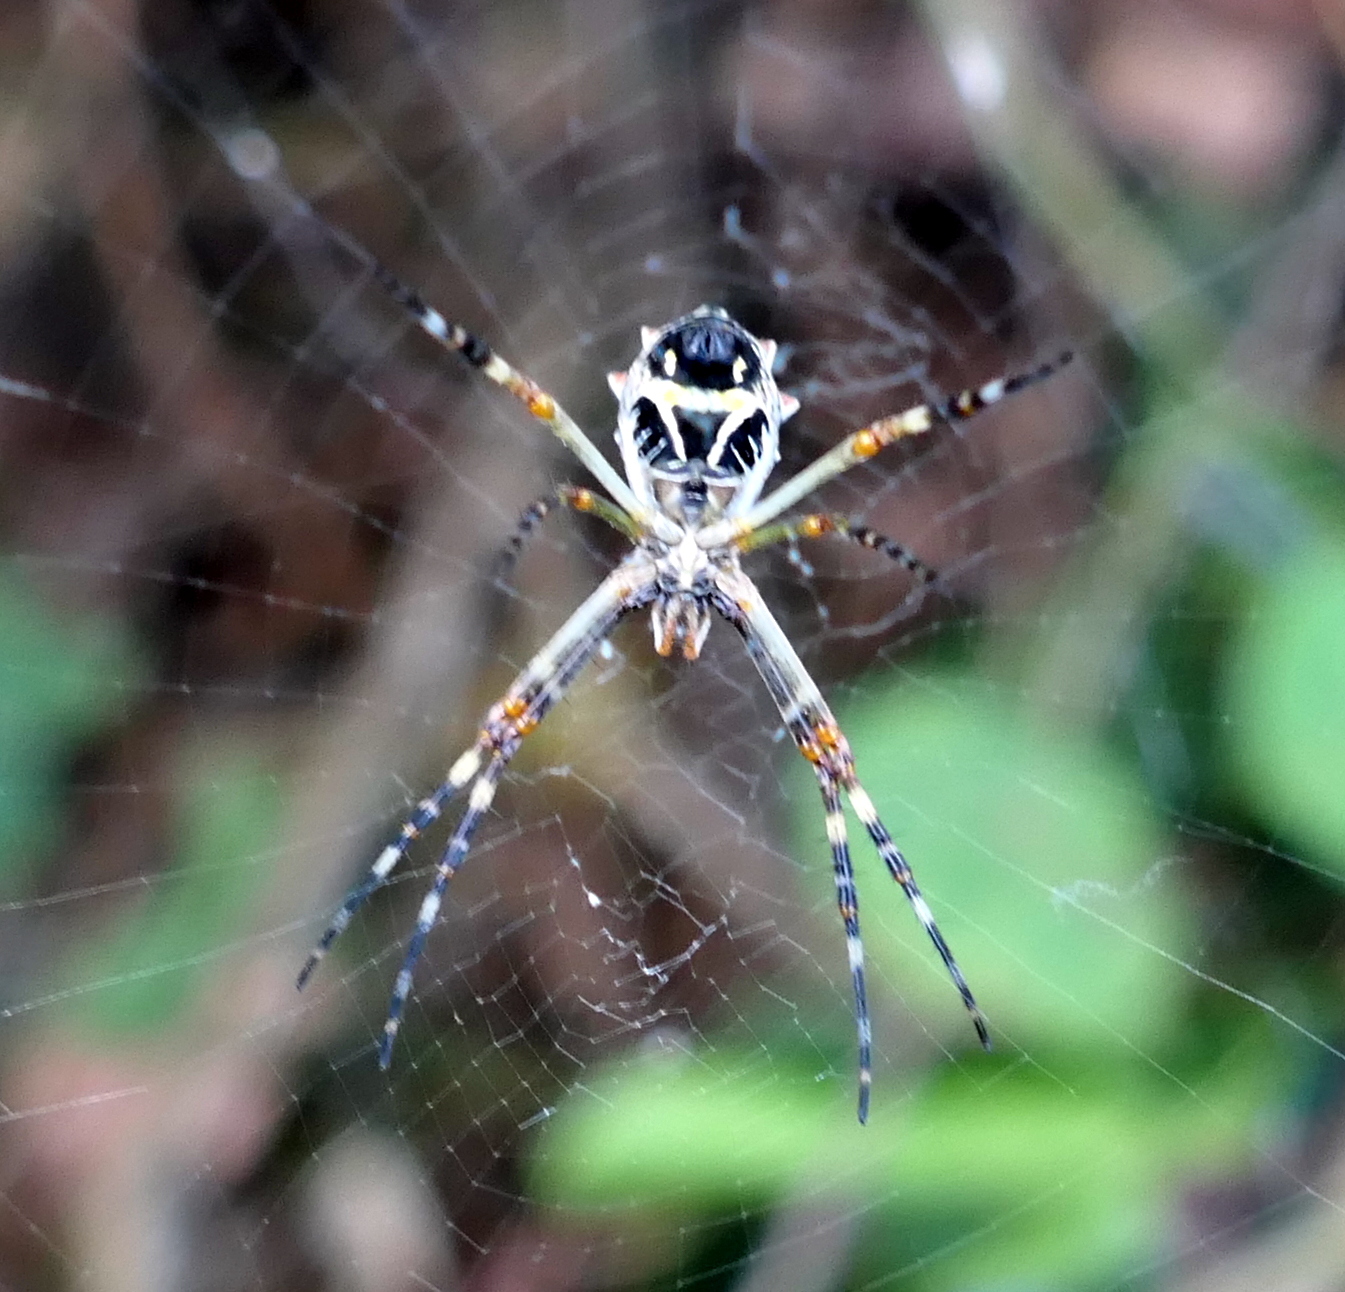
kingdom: Animalia
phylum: Arthropoda
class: Arachnida
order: Araneae
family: Araneidae
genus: Argiope
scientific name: Argiope argentata
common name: Orb weavers
